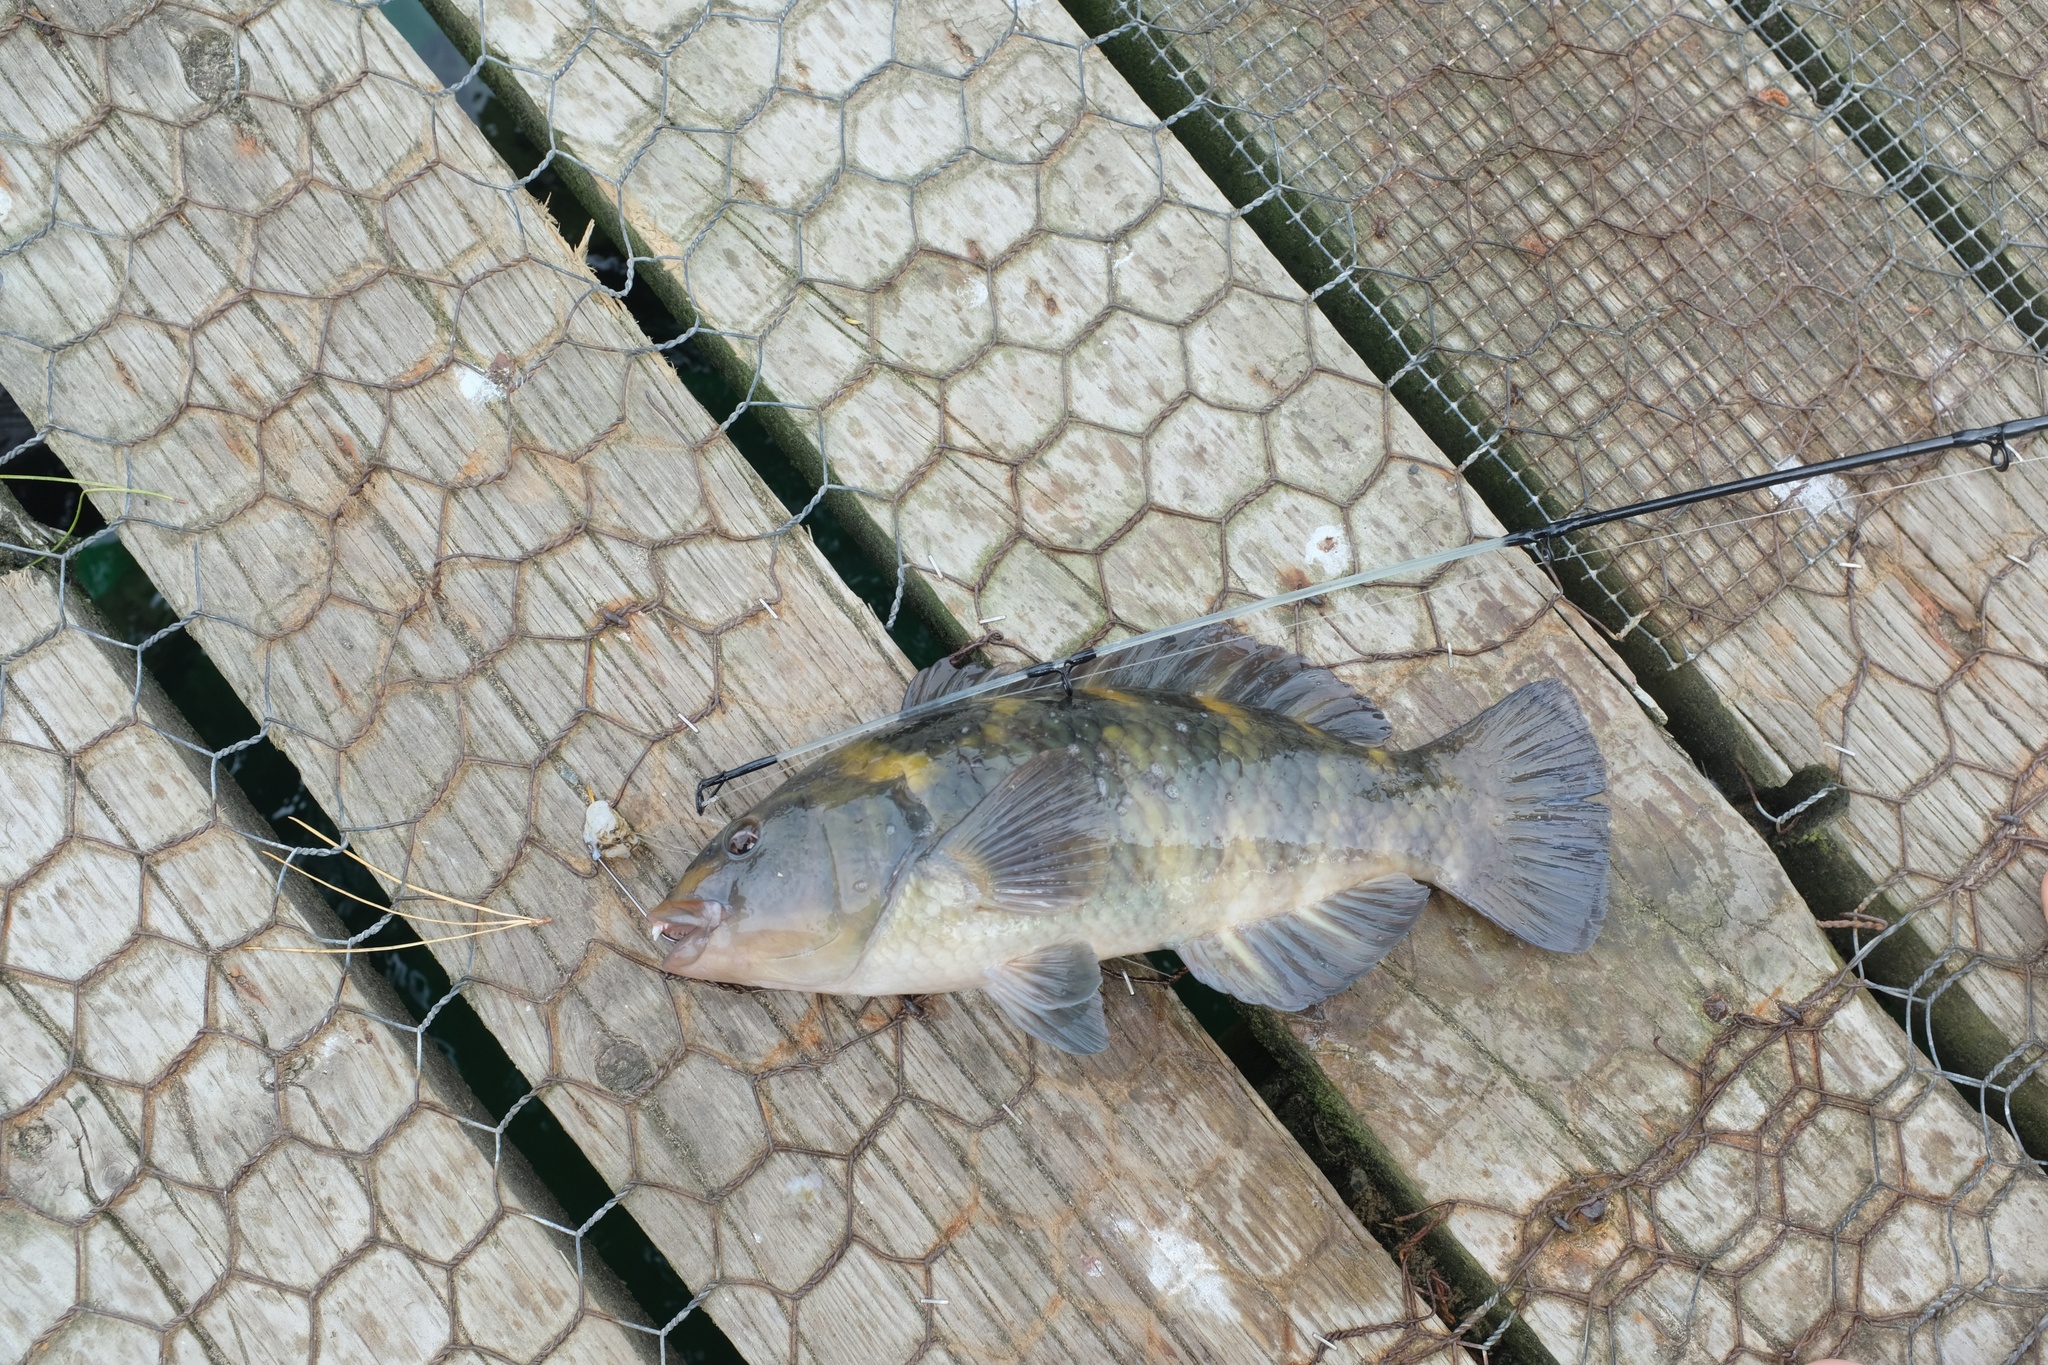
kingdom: Animalia
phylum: Chordata
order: Perciformes
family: Labridae
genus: Notolabrus
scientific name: Notolabrus fucicola
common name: Banded parrotfish
